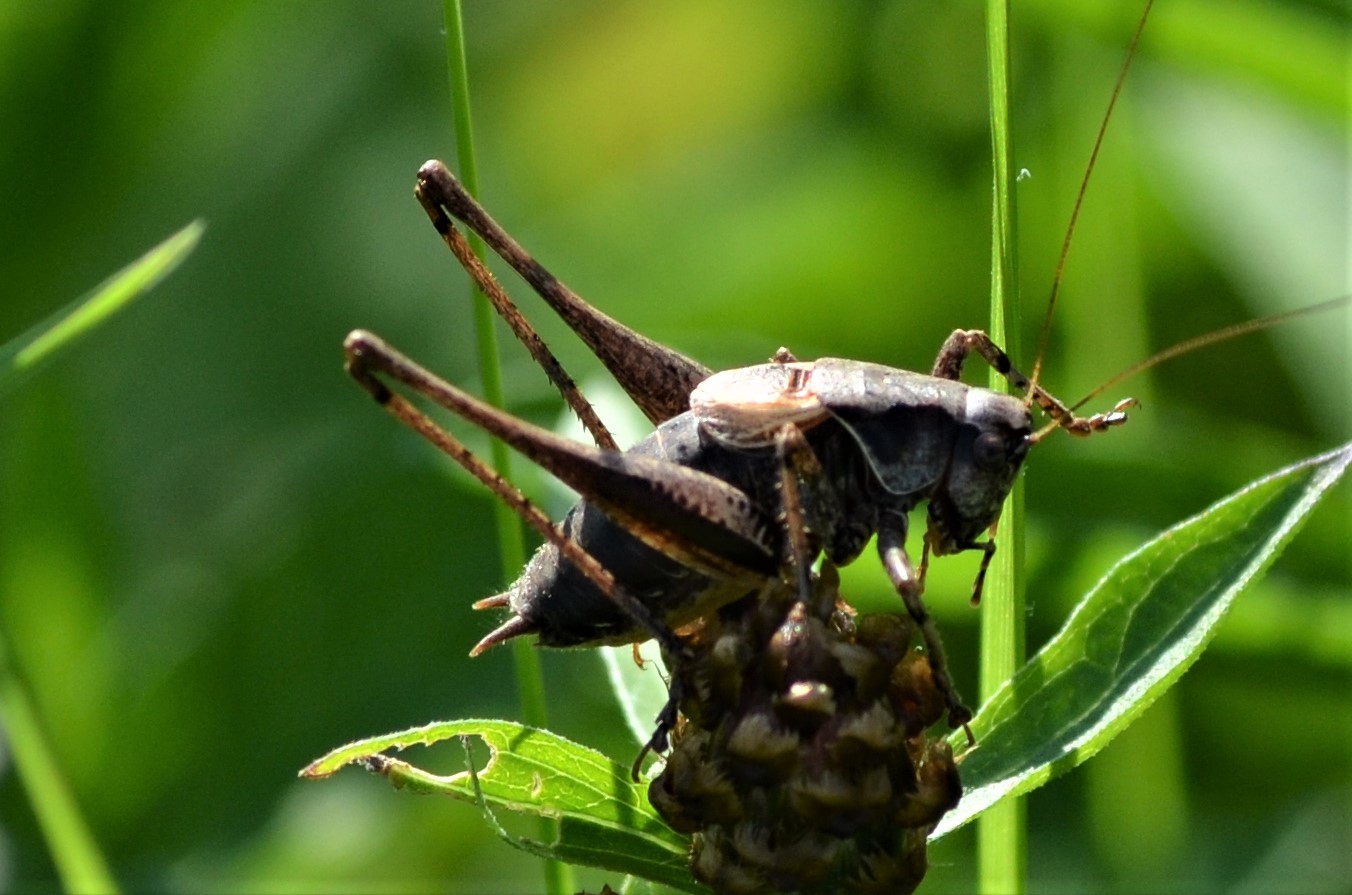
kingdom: Animalia
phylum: Arthropoda
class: Insecta
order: Orthoptera
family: Tettigoniidae
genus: Pholidoptera
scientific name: Pholidoptera griseoaptera
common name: Dark bush-cricket
